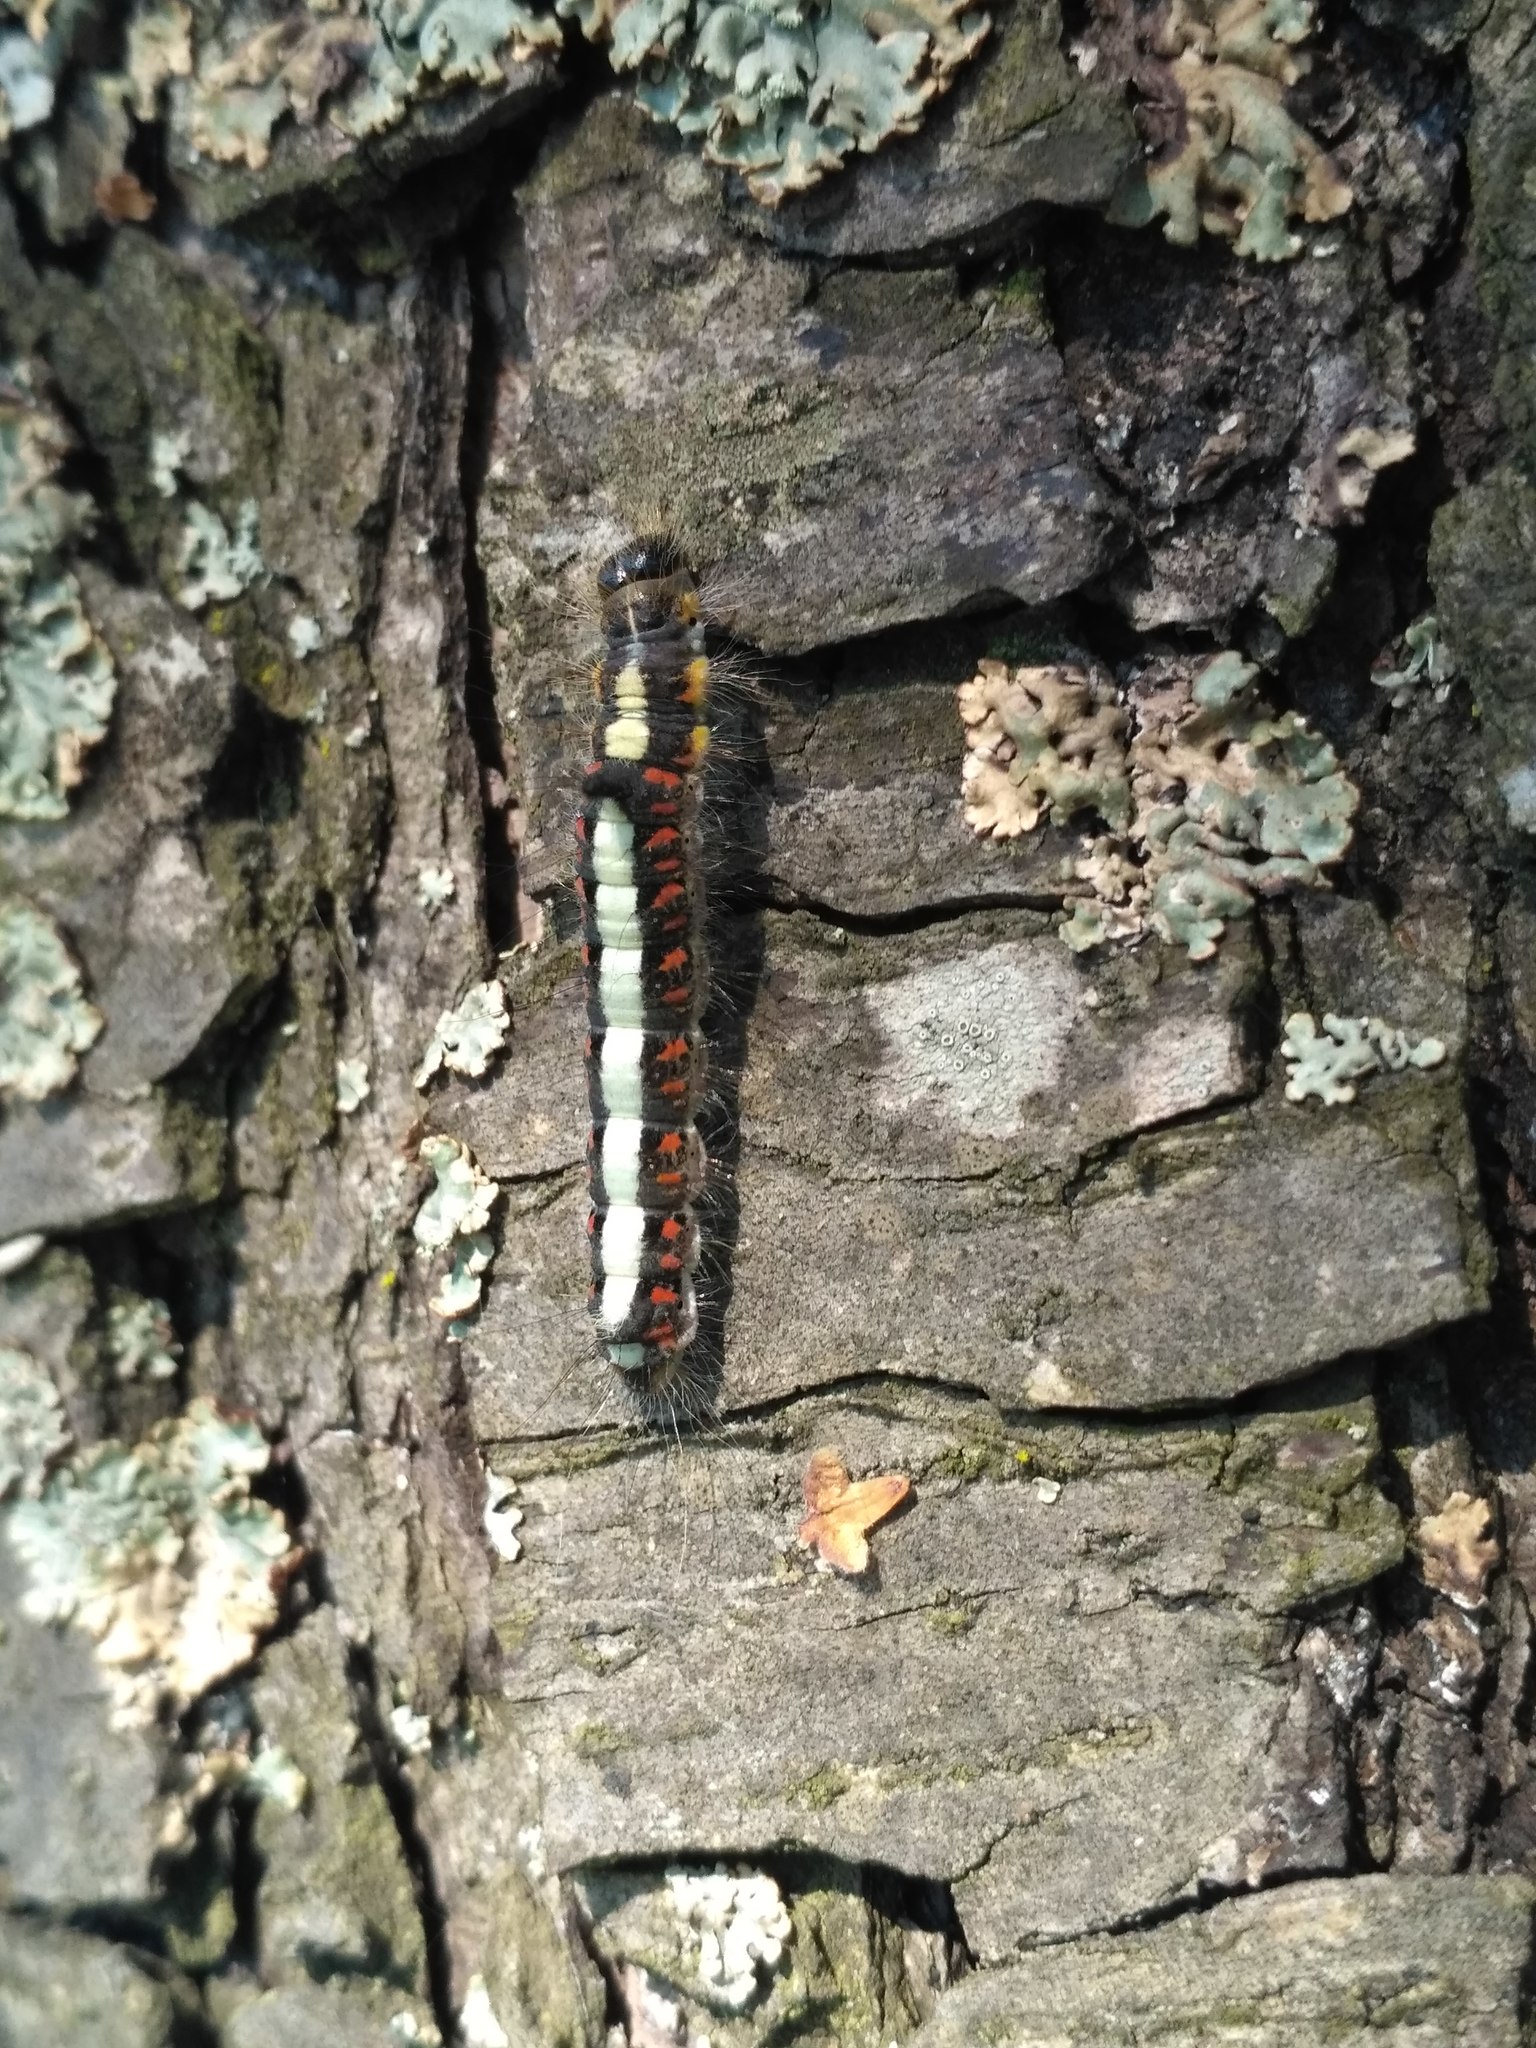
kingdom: Animalia
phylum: Arthropoda
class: Insecta
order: Lepidoptera
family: Noctuidae
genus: Acronicta
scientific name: Acronicta psi
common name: Grey dagger
